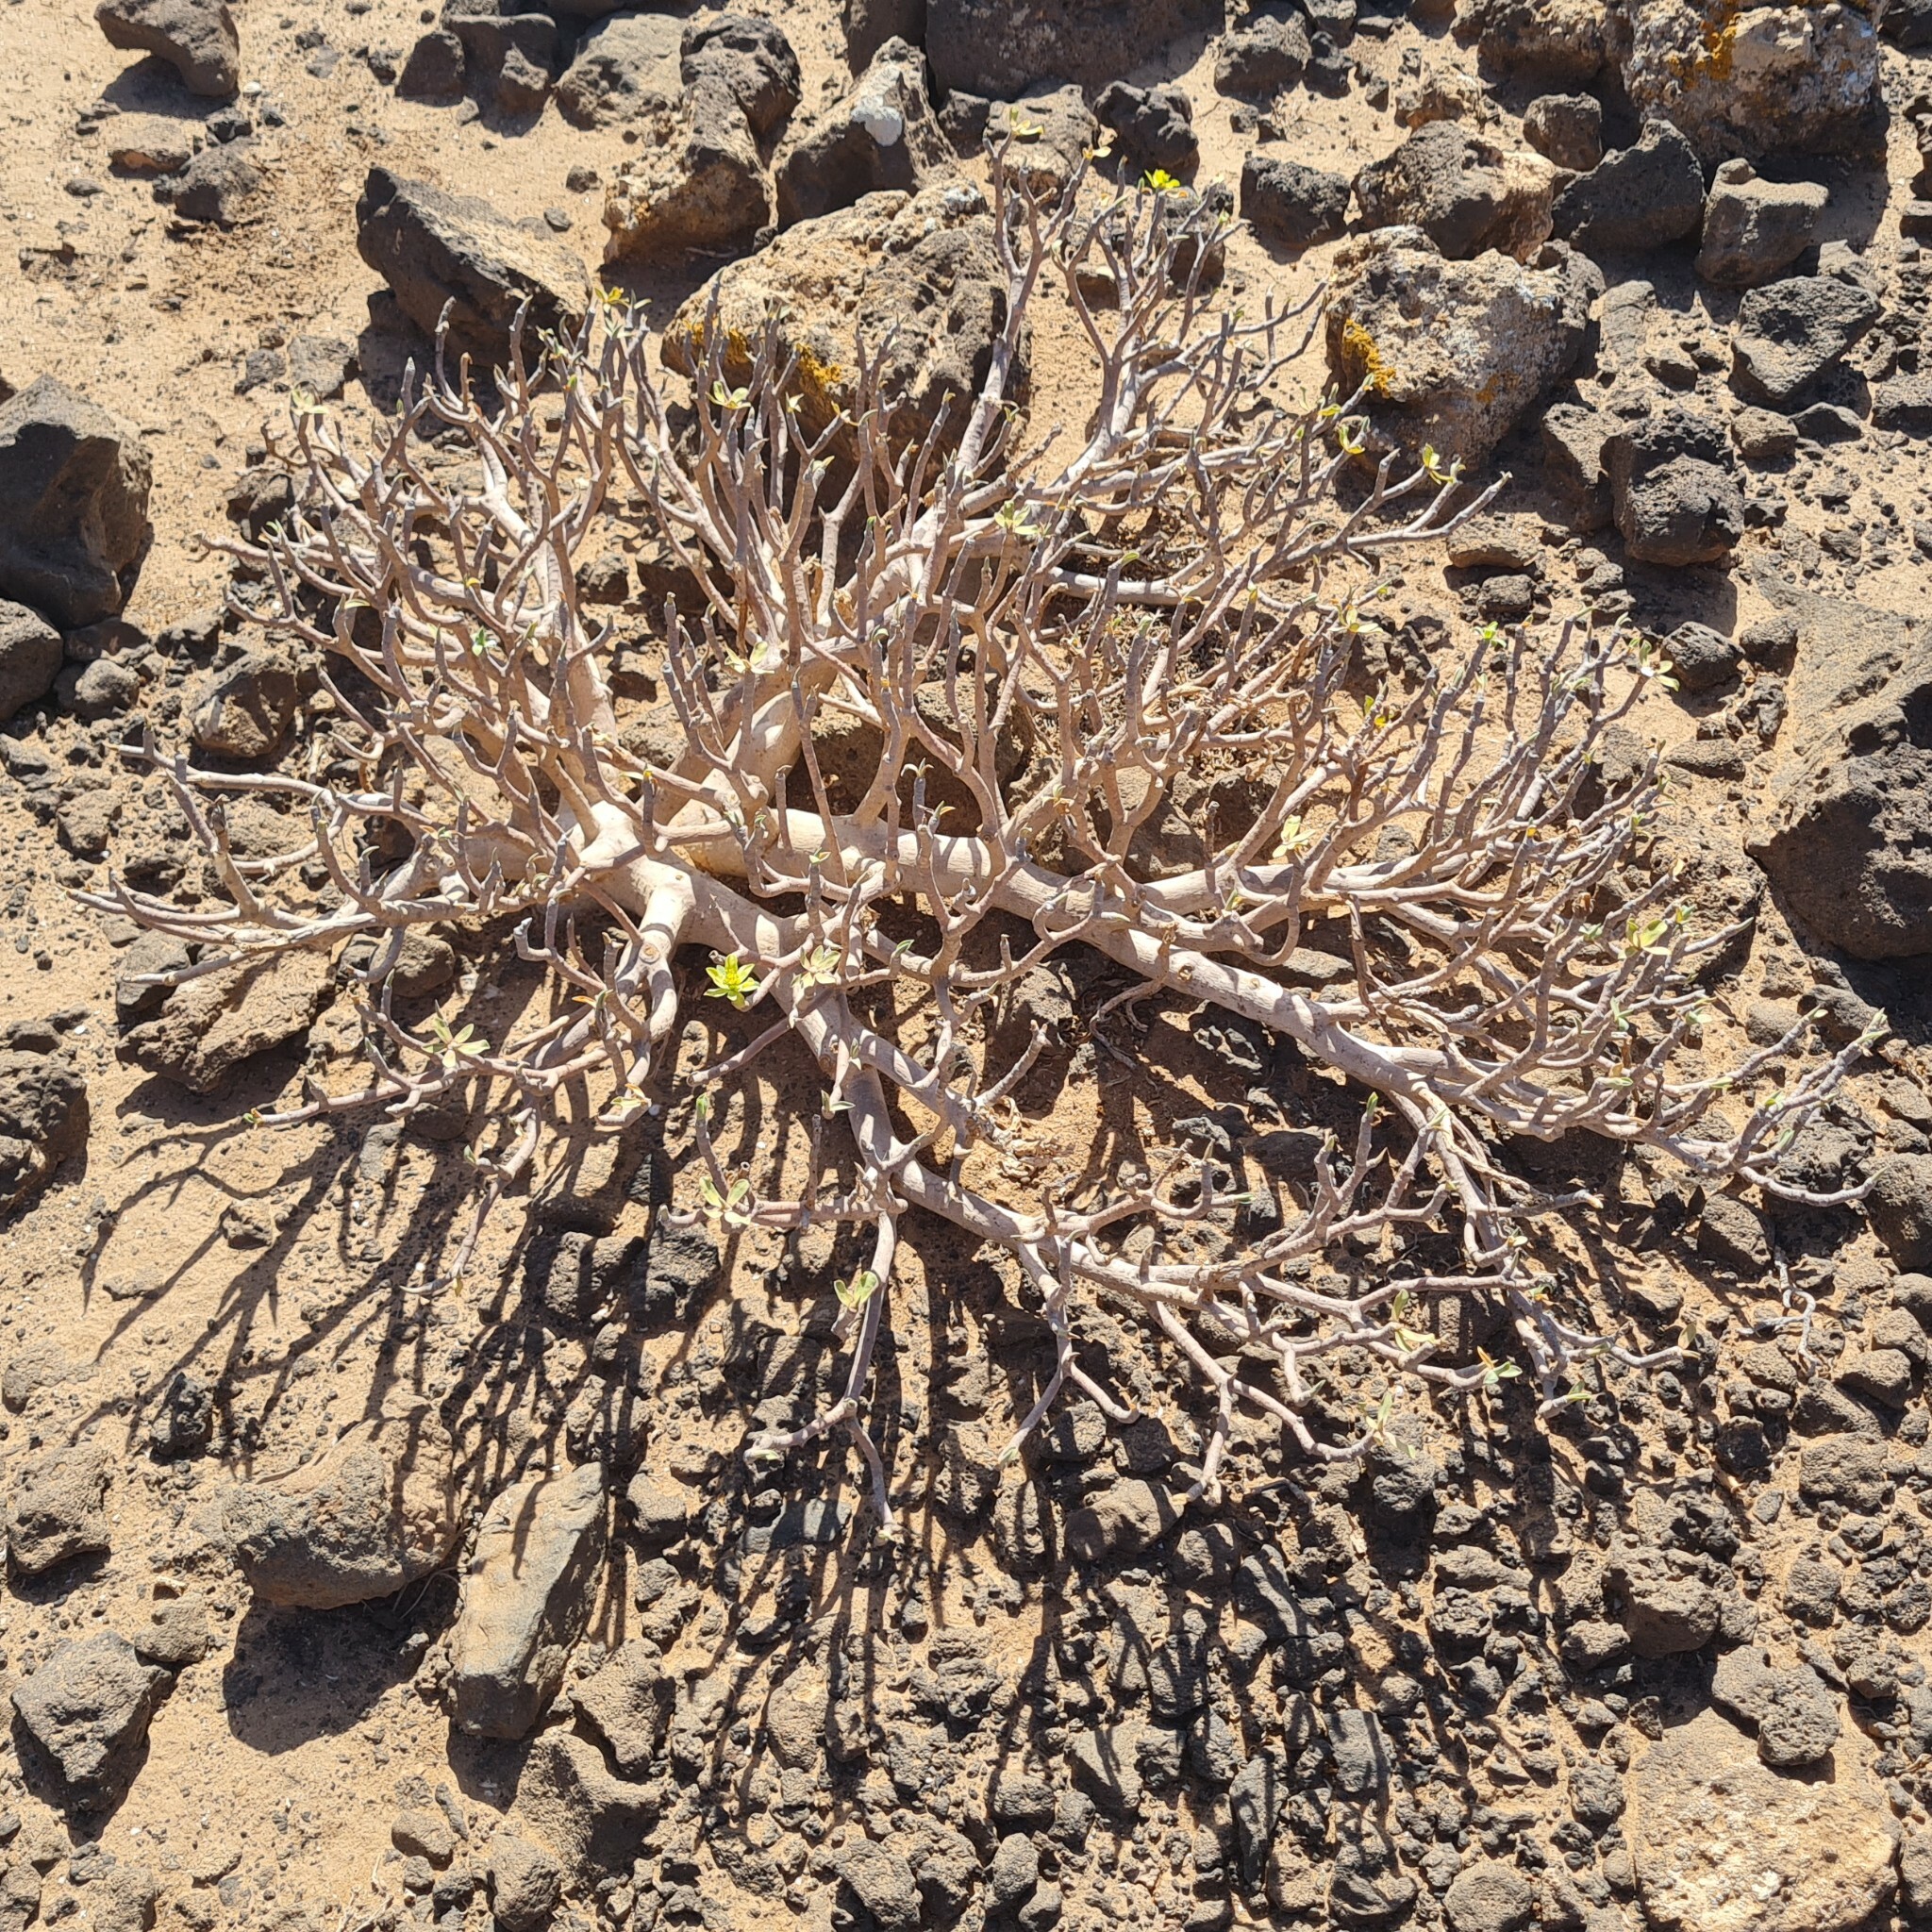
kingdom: Plantae
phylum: Tracheophyta
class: Magnoliopsida
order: Malpighiales
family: Euphorbiaceae
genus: Euphorbia
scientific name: Euphorbia balsamifera
